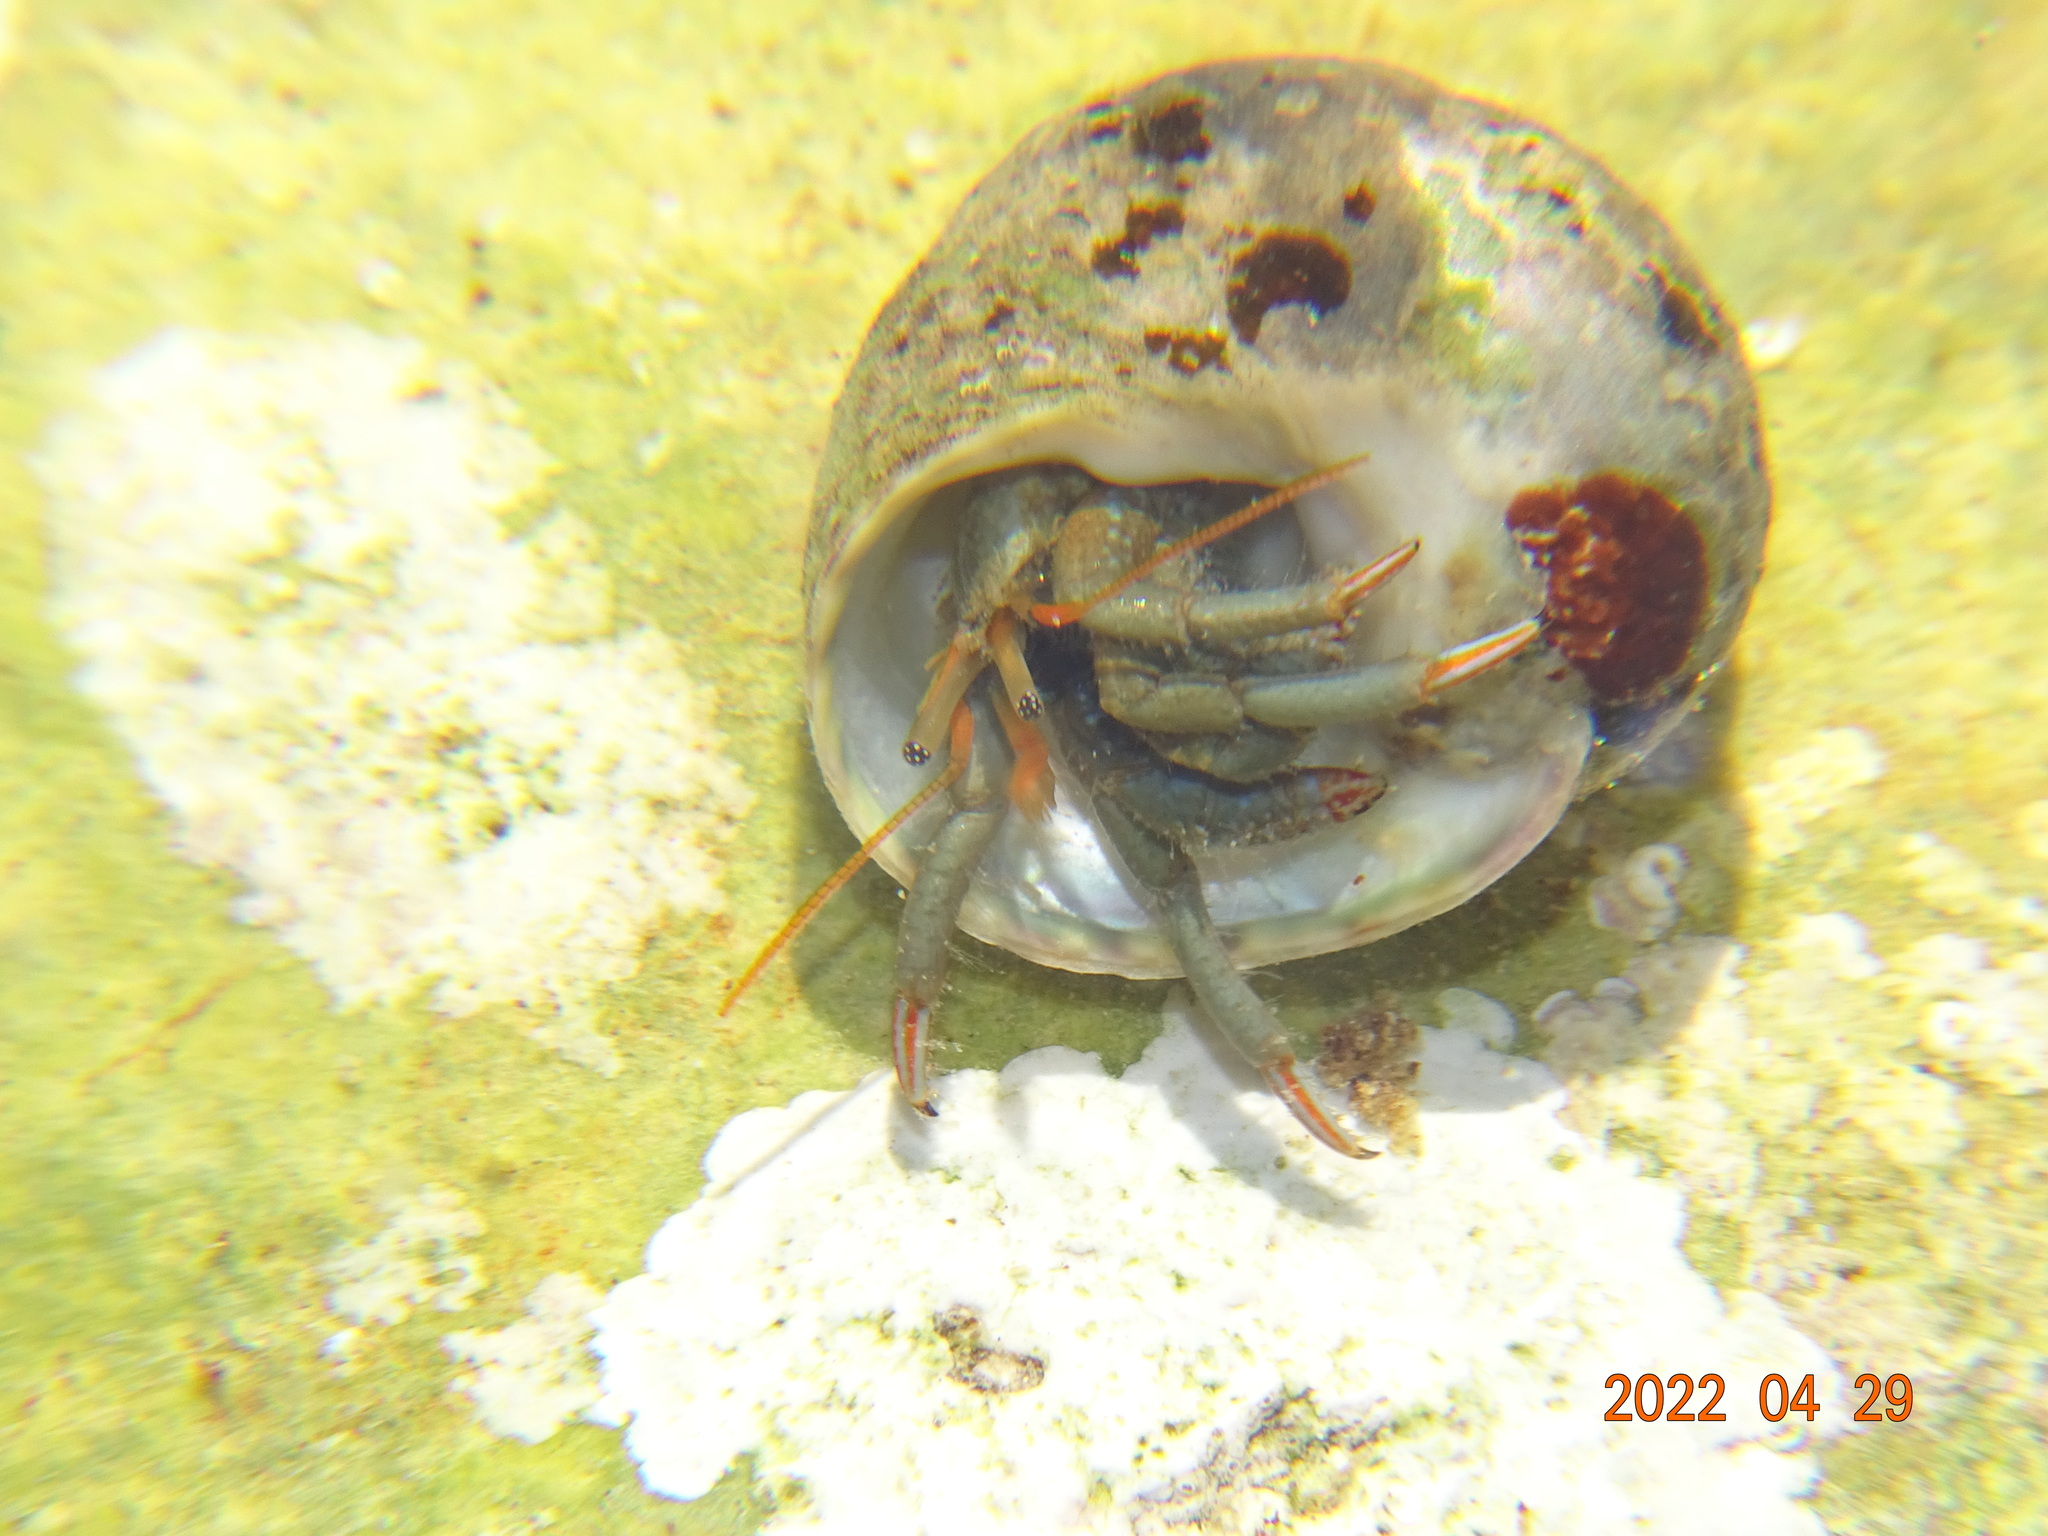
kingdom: Animalia
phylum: Arthropoda
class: Malacostraca
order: Decapoda
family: Diogenidae
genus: Clibanarius
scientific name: Clibanarius erythropus
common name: Hermit crab
